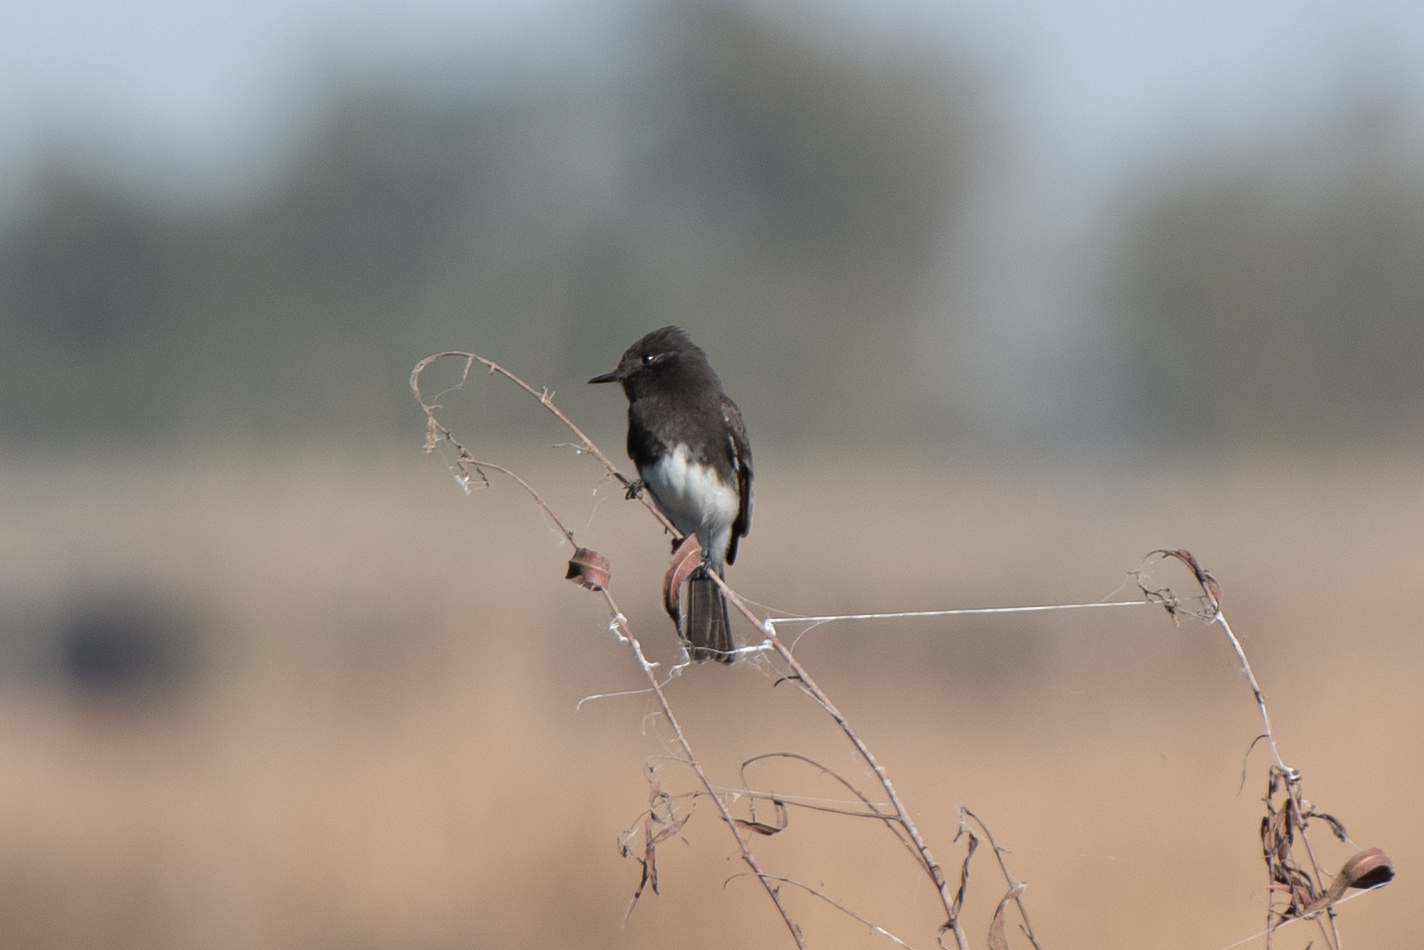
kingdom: Animalia
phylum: Chordata
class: Aves
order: Passeriformes
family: Tyrannidae
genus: Sayornis
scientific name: Sayornis nigricans
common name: Black phoebe
